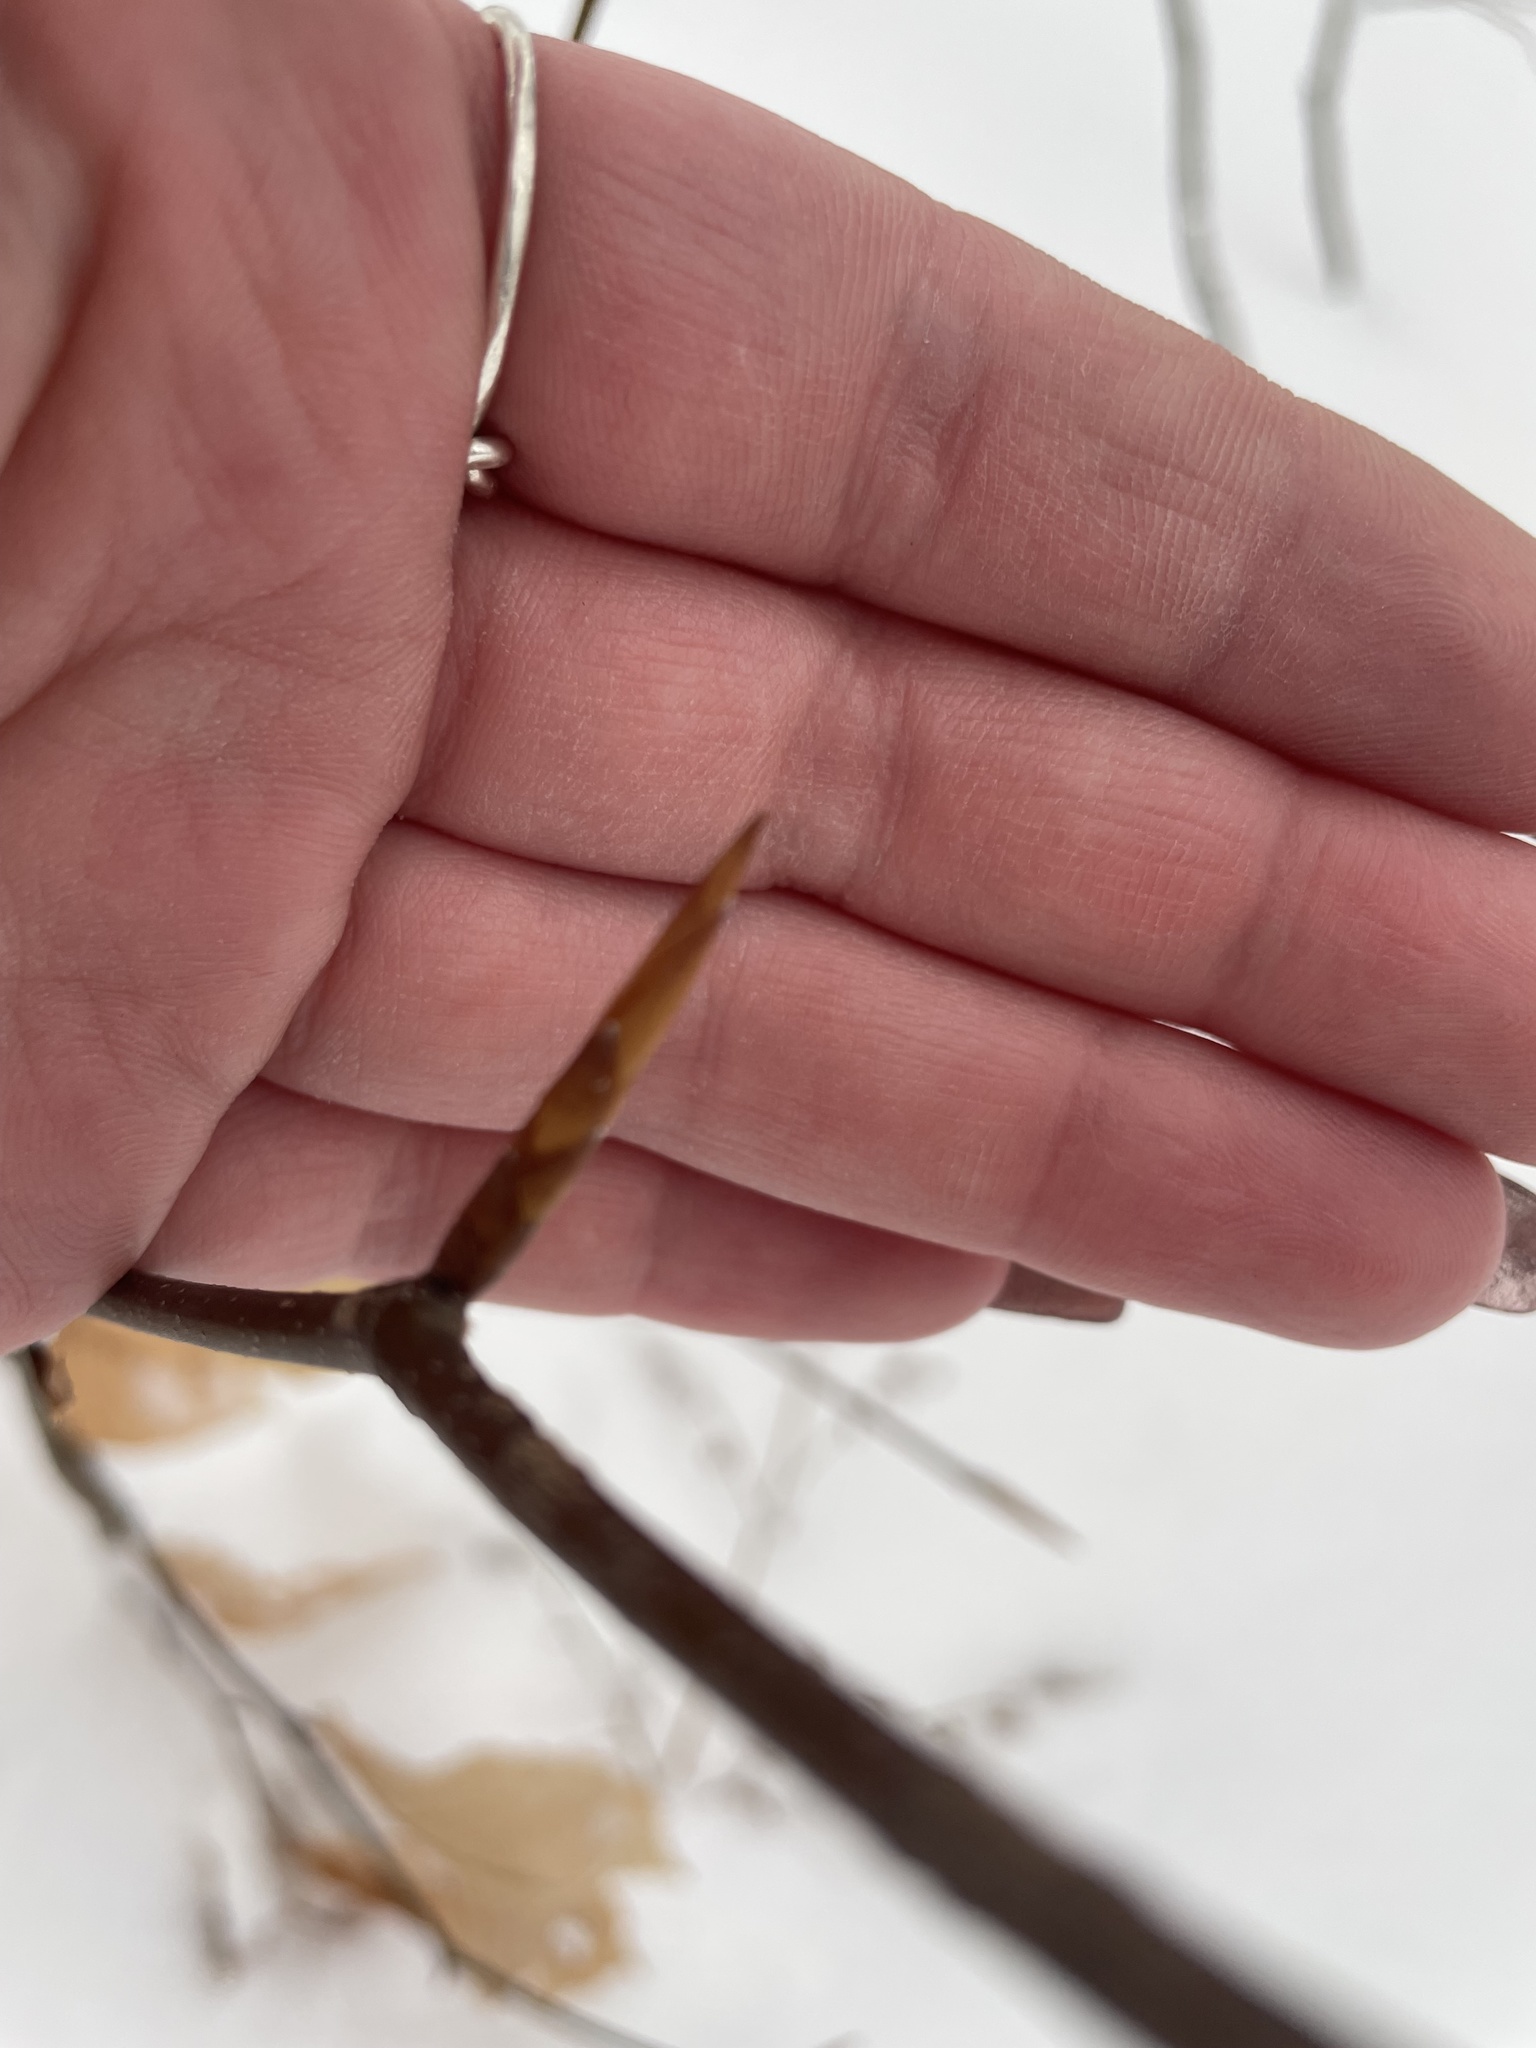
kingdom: Plantae
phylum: Tracheophyta
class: Magnoliopsida
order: Fagales
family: Fagaceae
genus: Fagus
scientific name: Fagus grandifolia
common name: American beech
